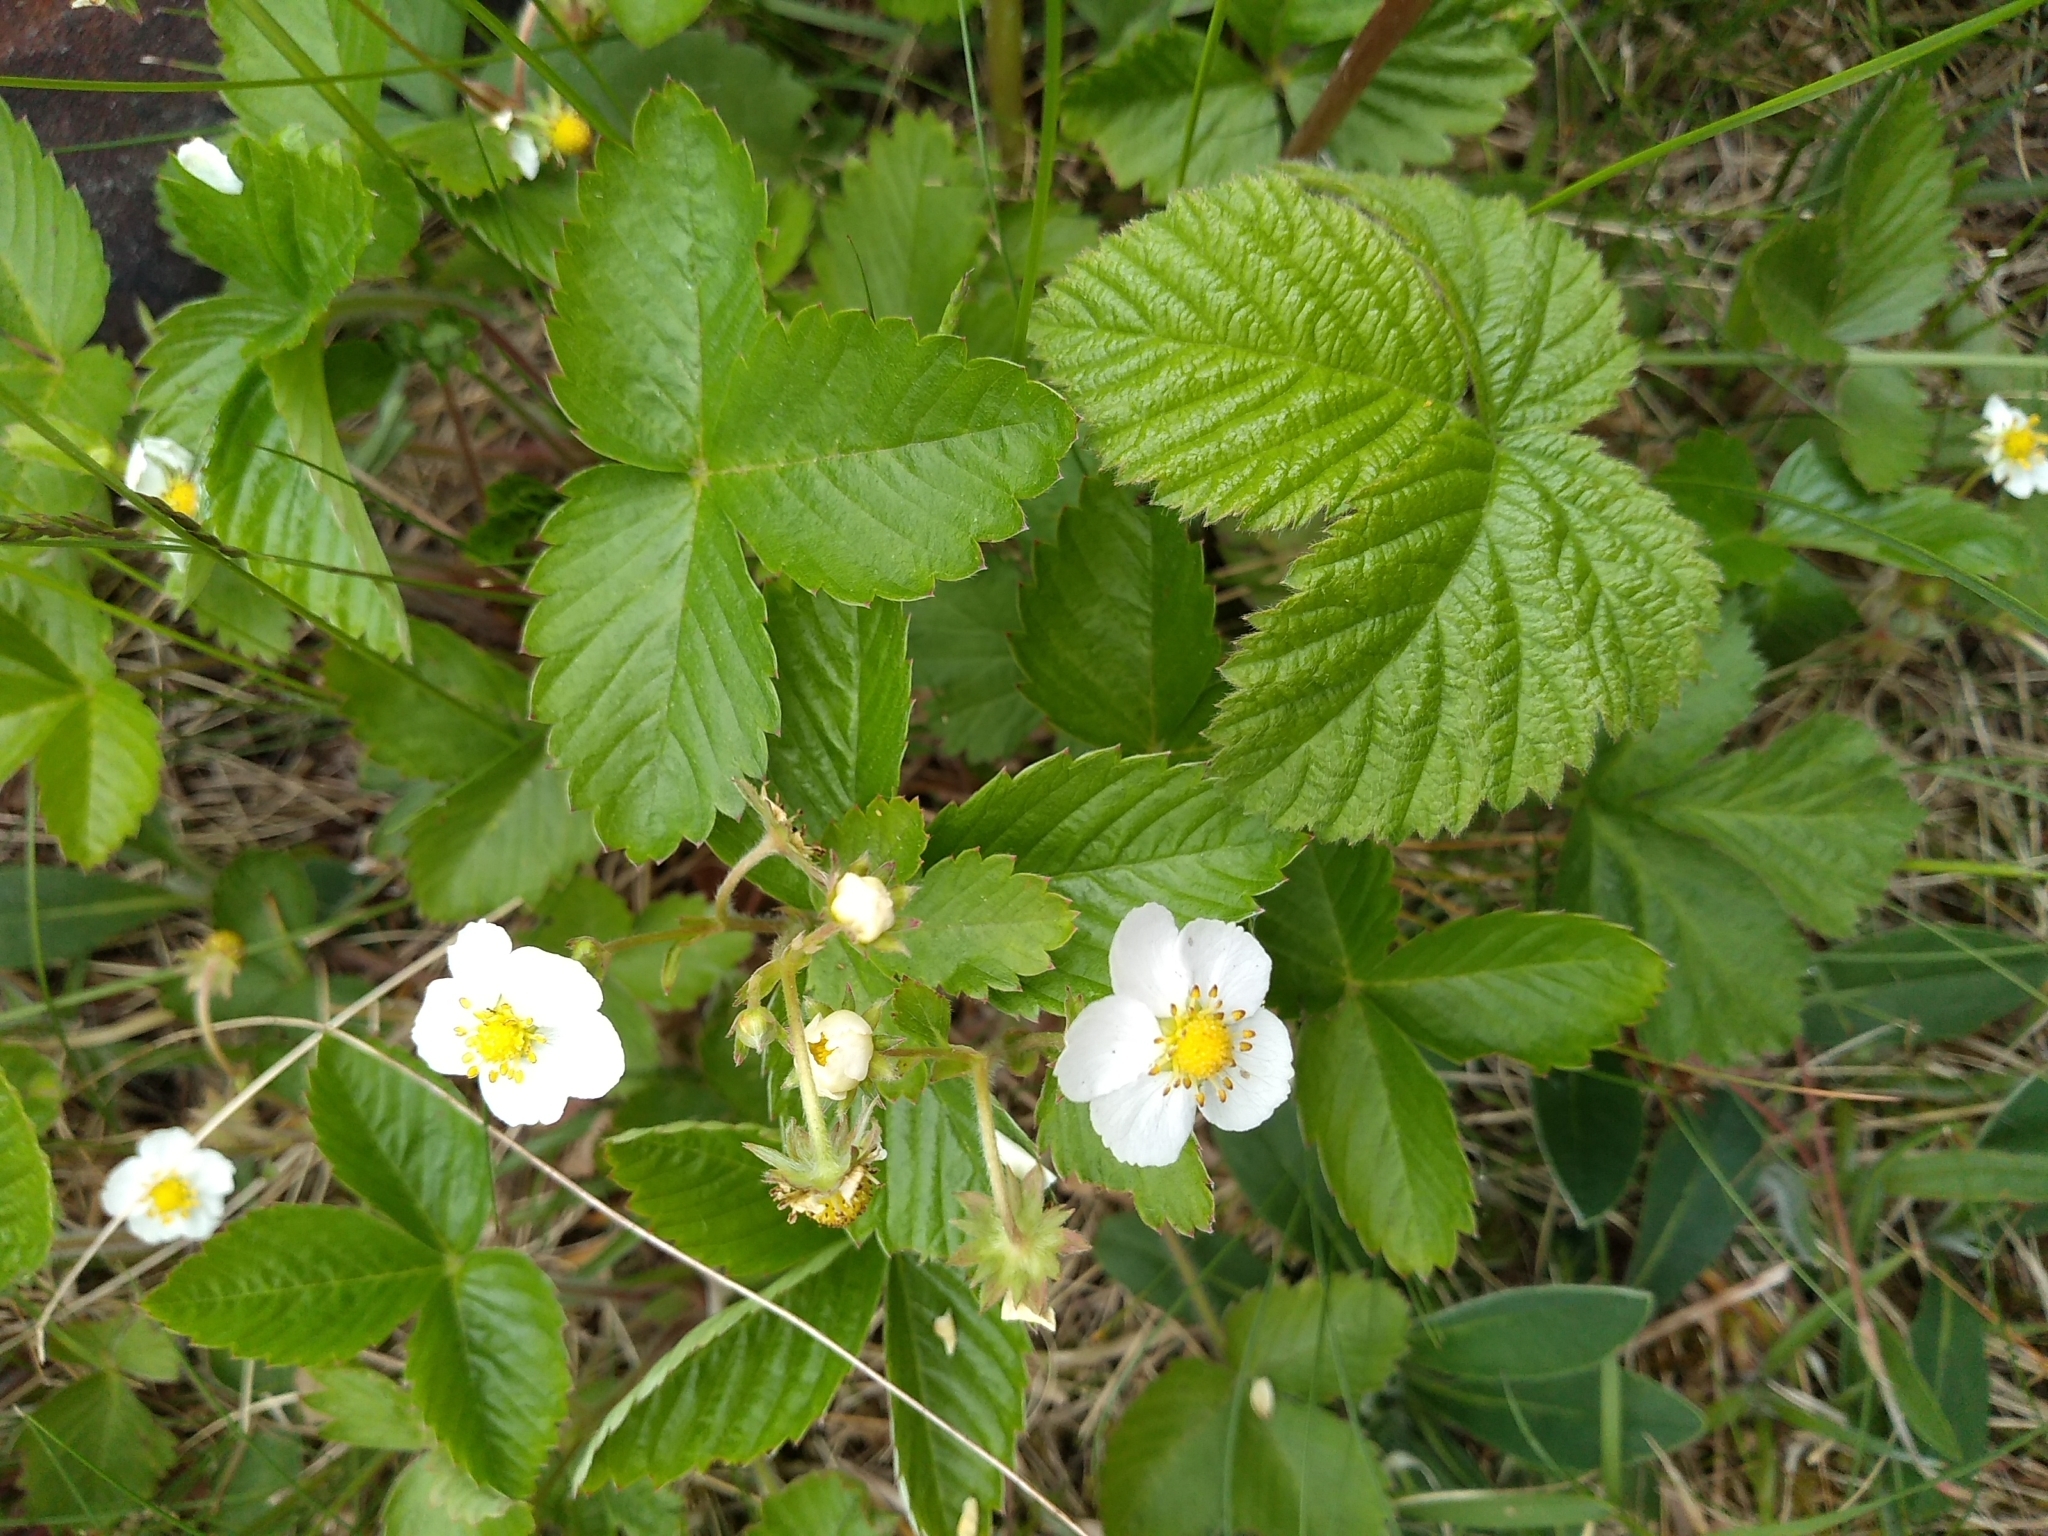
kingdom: Plantae
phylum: Tracheophyta
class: Magnoliopsida
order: Rosales
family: Rosaceae
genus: Fragaria
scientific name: Fragaria vesca
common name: Wild strawberry
